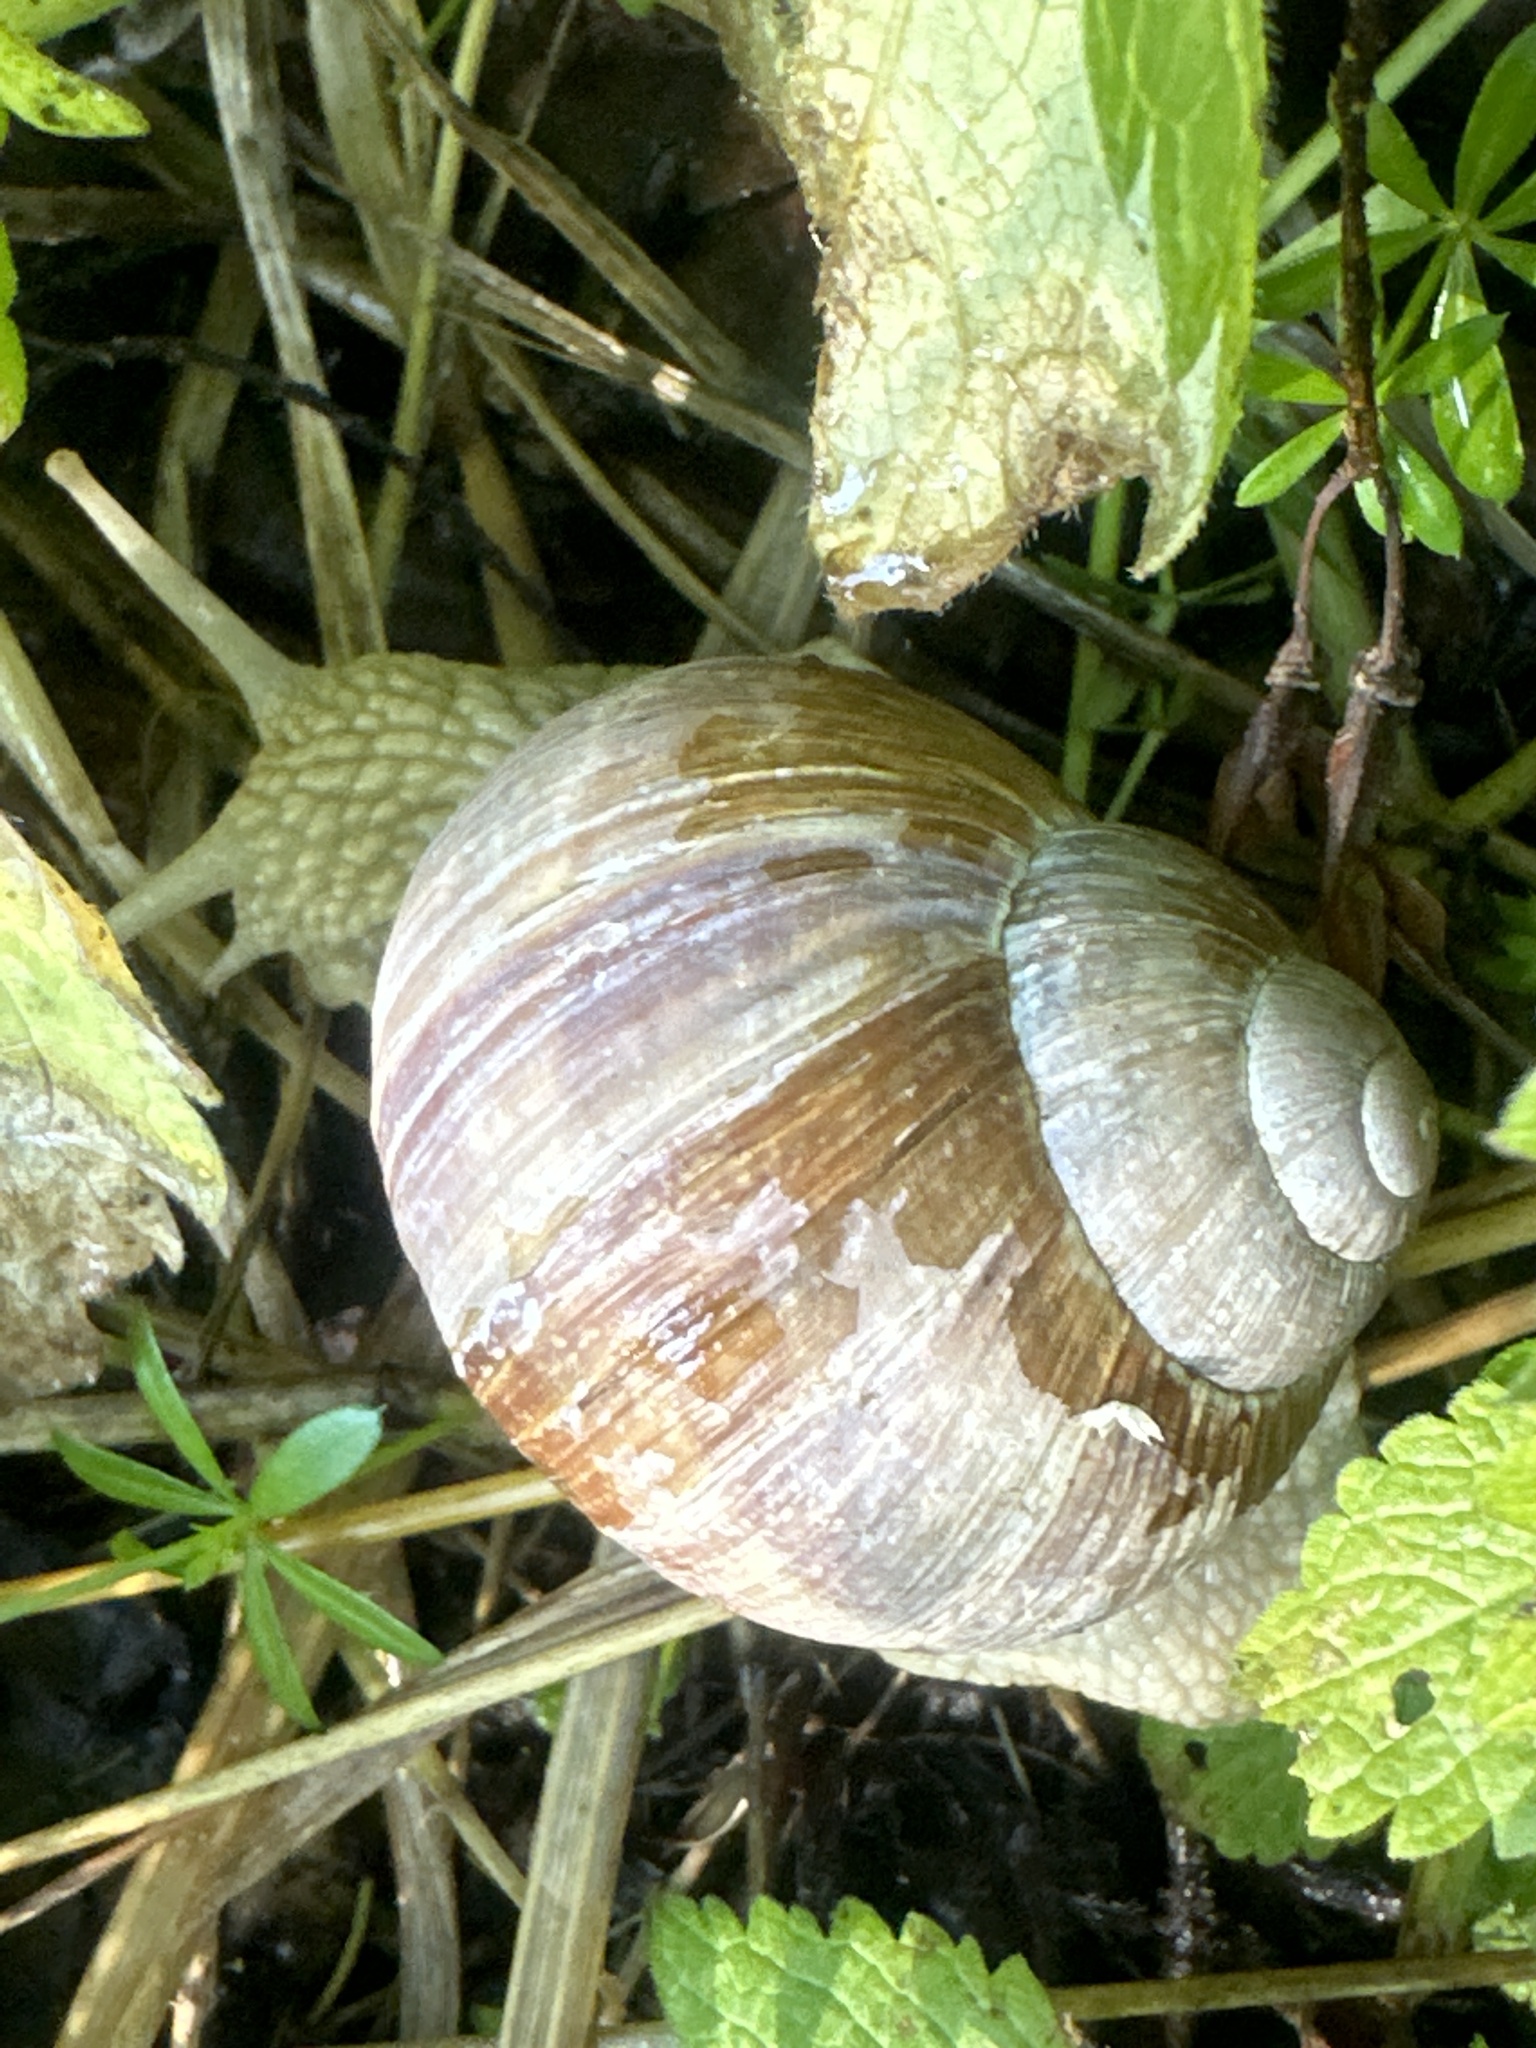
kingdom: Animalia
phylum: Mollusca
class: Gastropoda
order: Stylommatophora
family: Helicidae
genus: Helix
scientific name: Helix pomatia
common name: Roman snail
